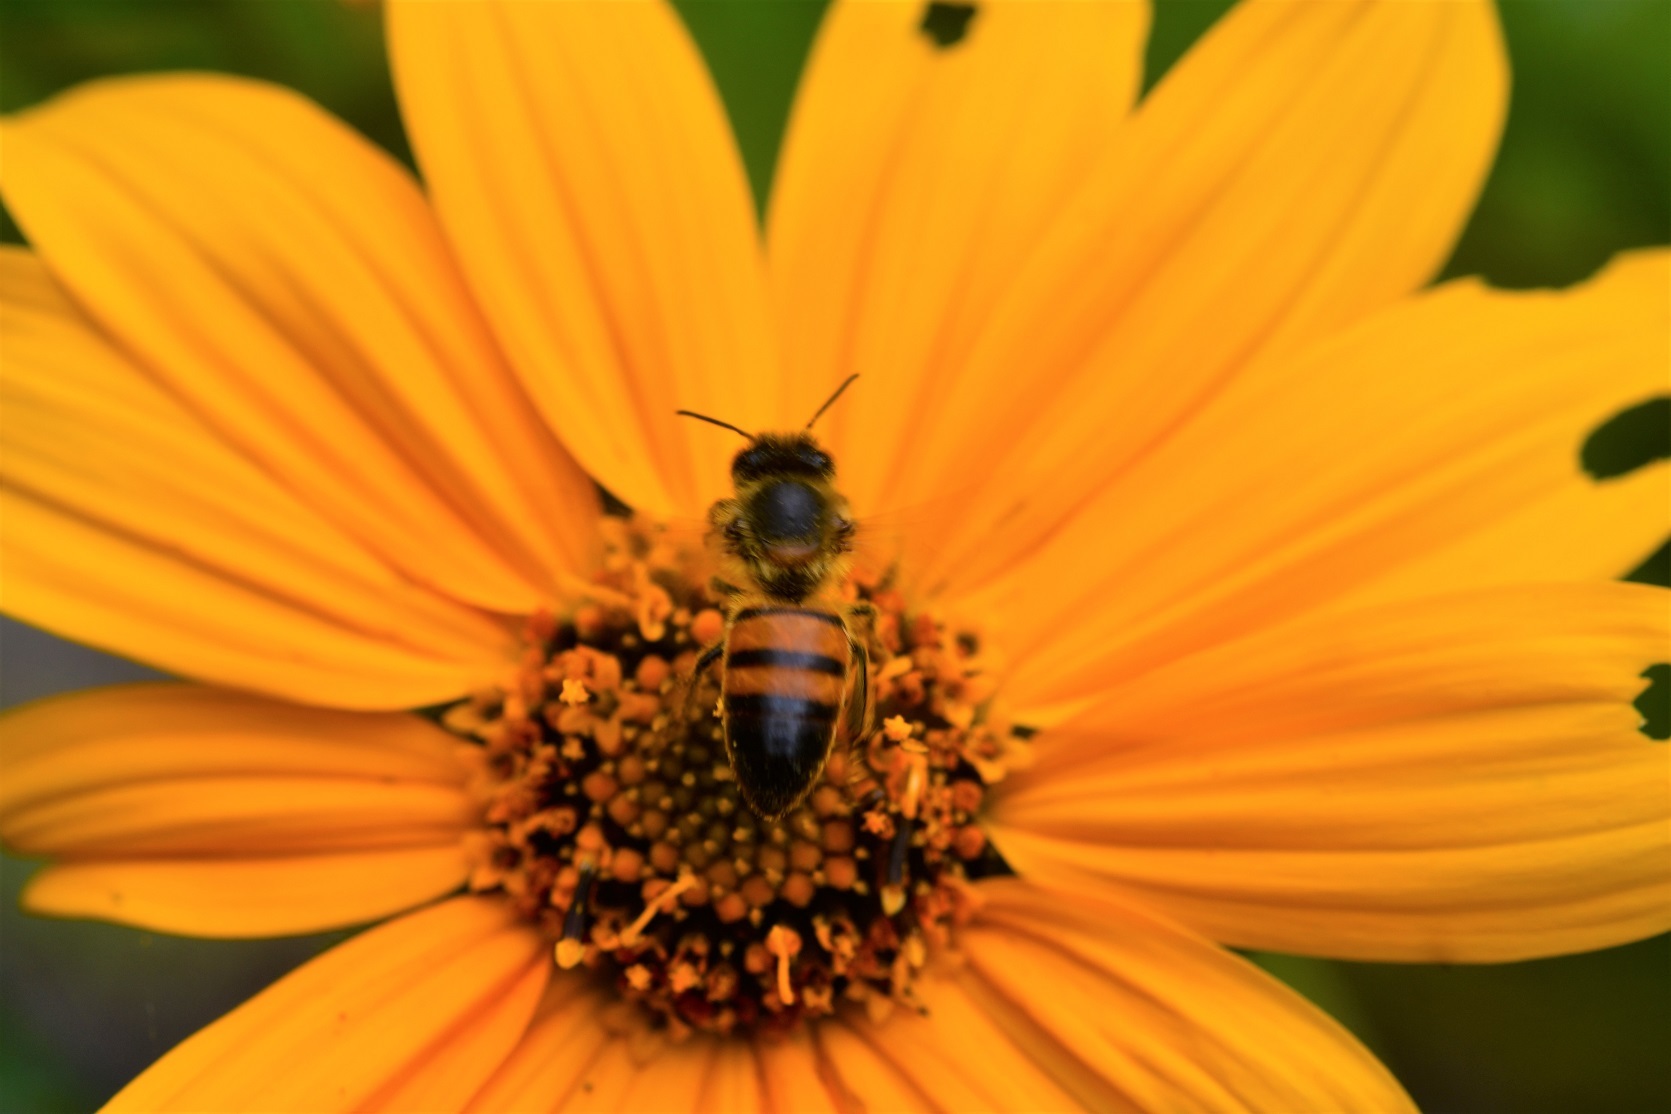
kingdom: Animalia
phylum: Arthropoda
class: Insecta
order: Hymenoptera
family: Apidae
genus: Apis
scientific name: Apis mellifera
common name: Honey bee
